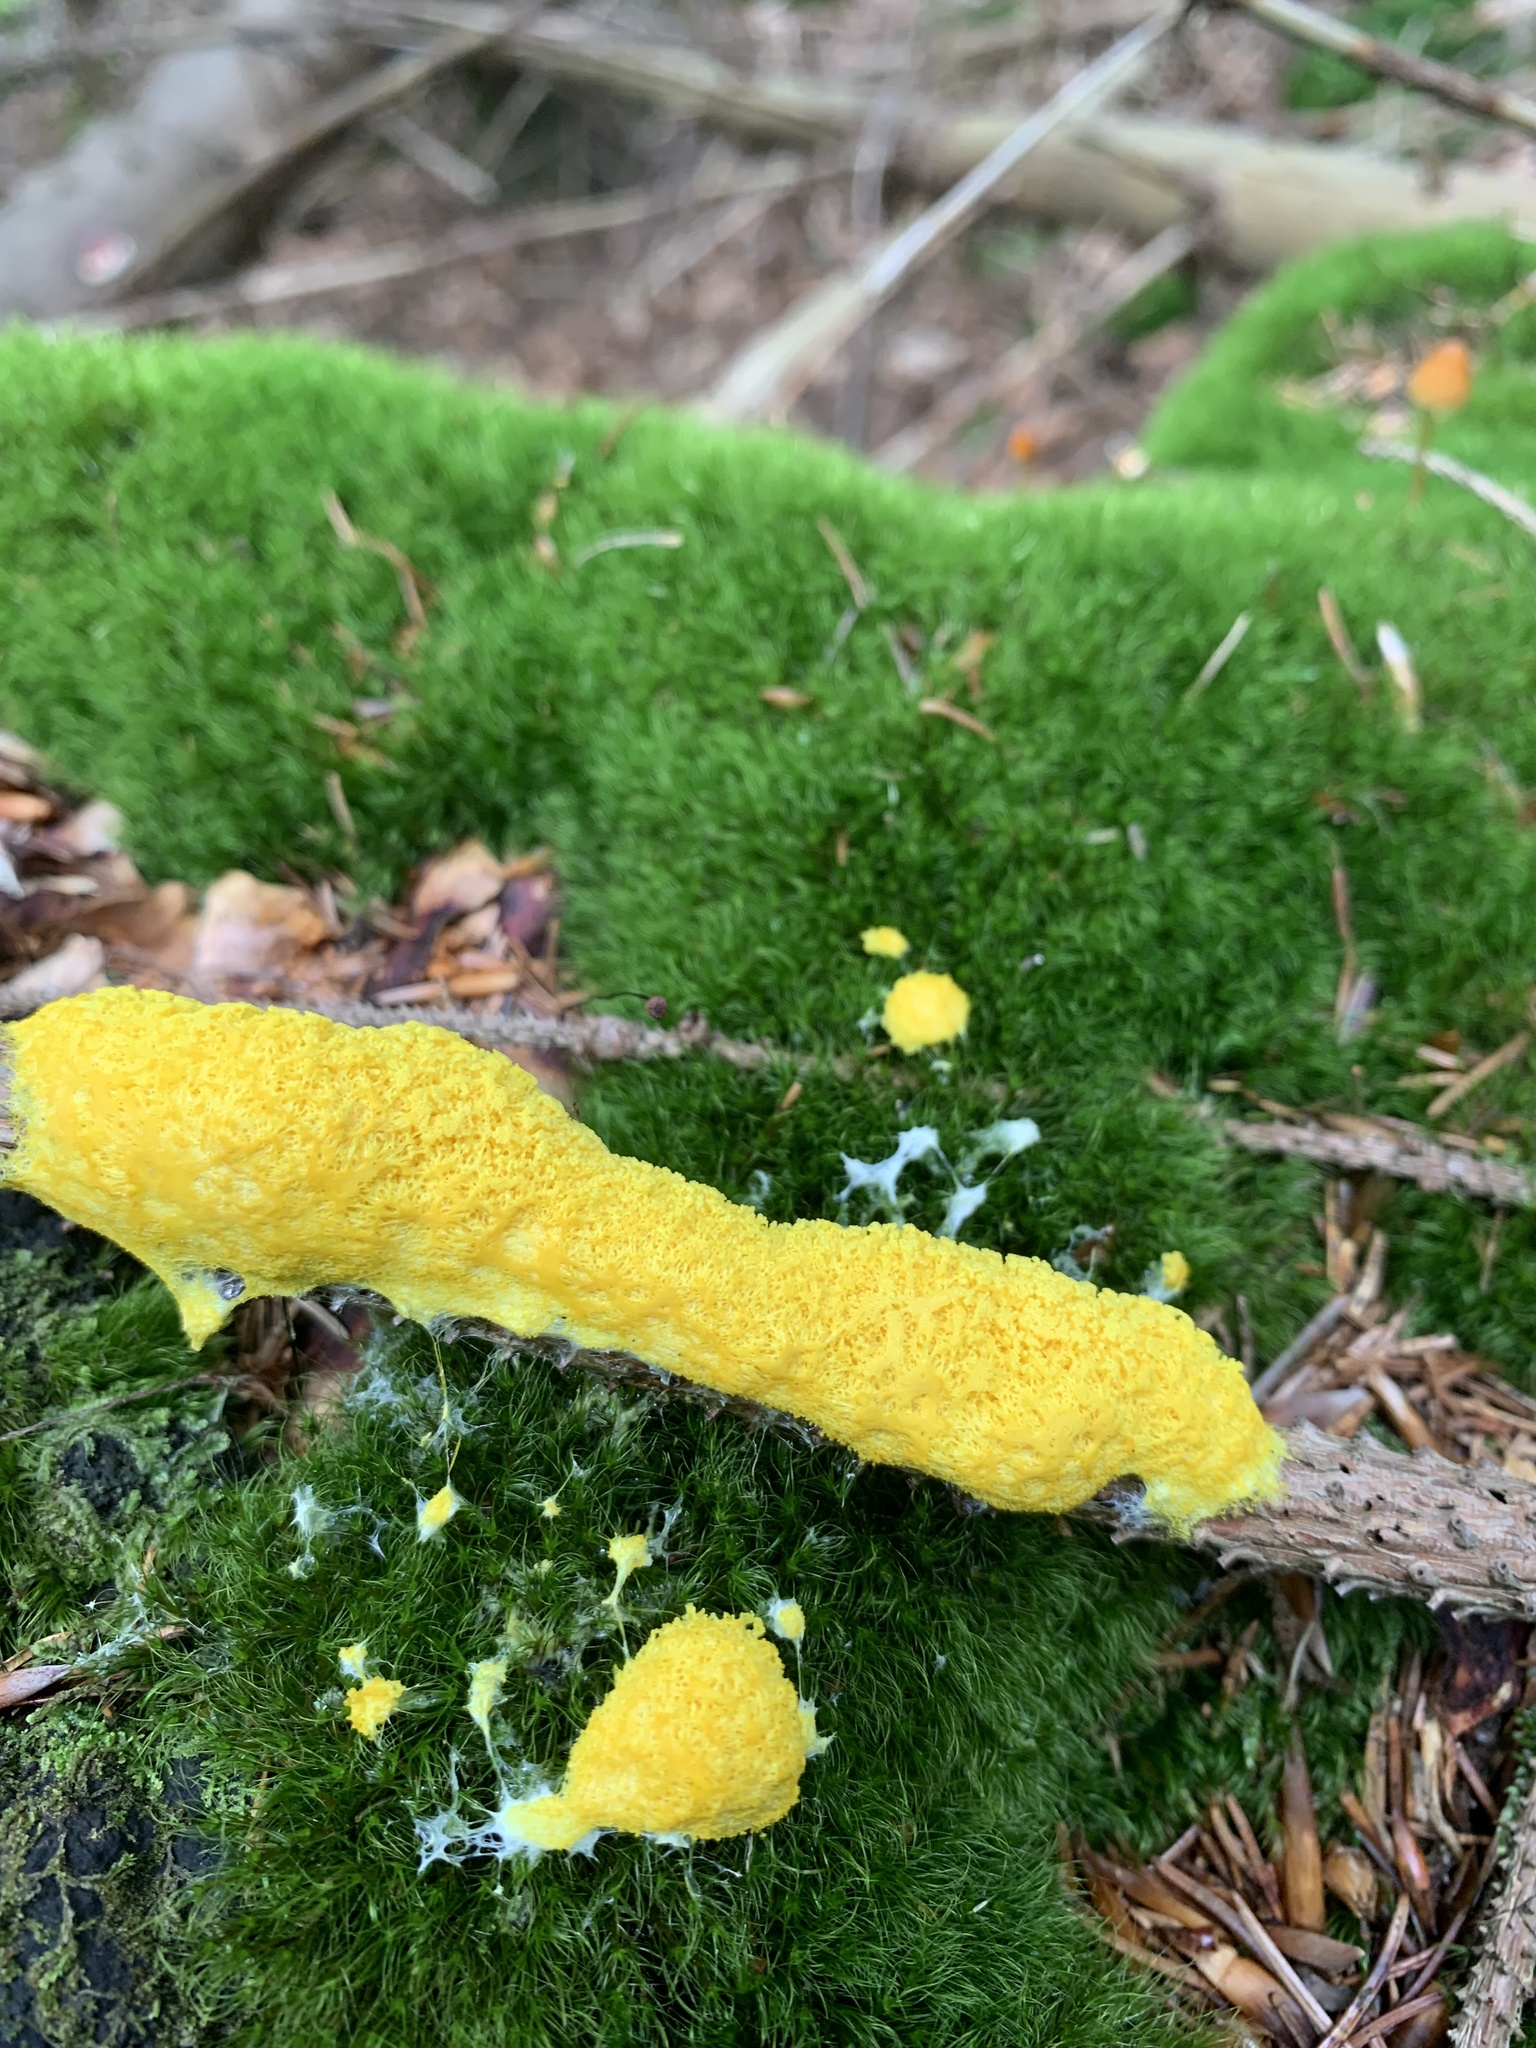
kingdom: Protozoa
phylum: Mycetozoa
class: Myxomycetes
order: Physarales
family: Physaraceae
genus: Fuligo
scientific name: Fuligo septica
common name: Dog vomit slime mold
